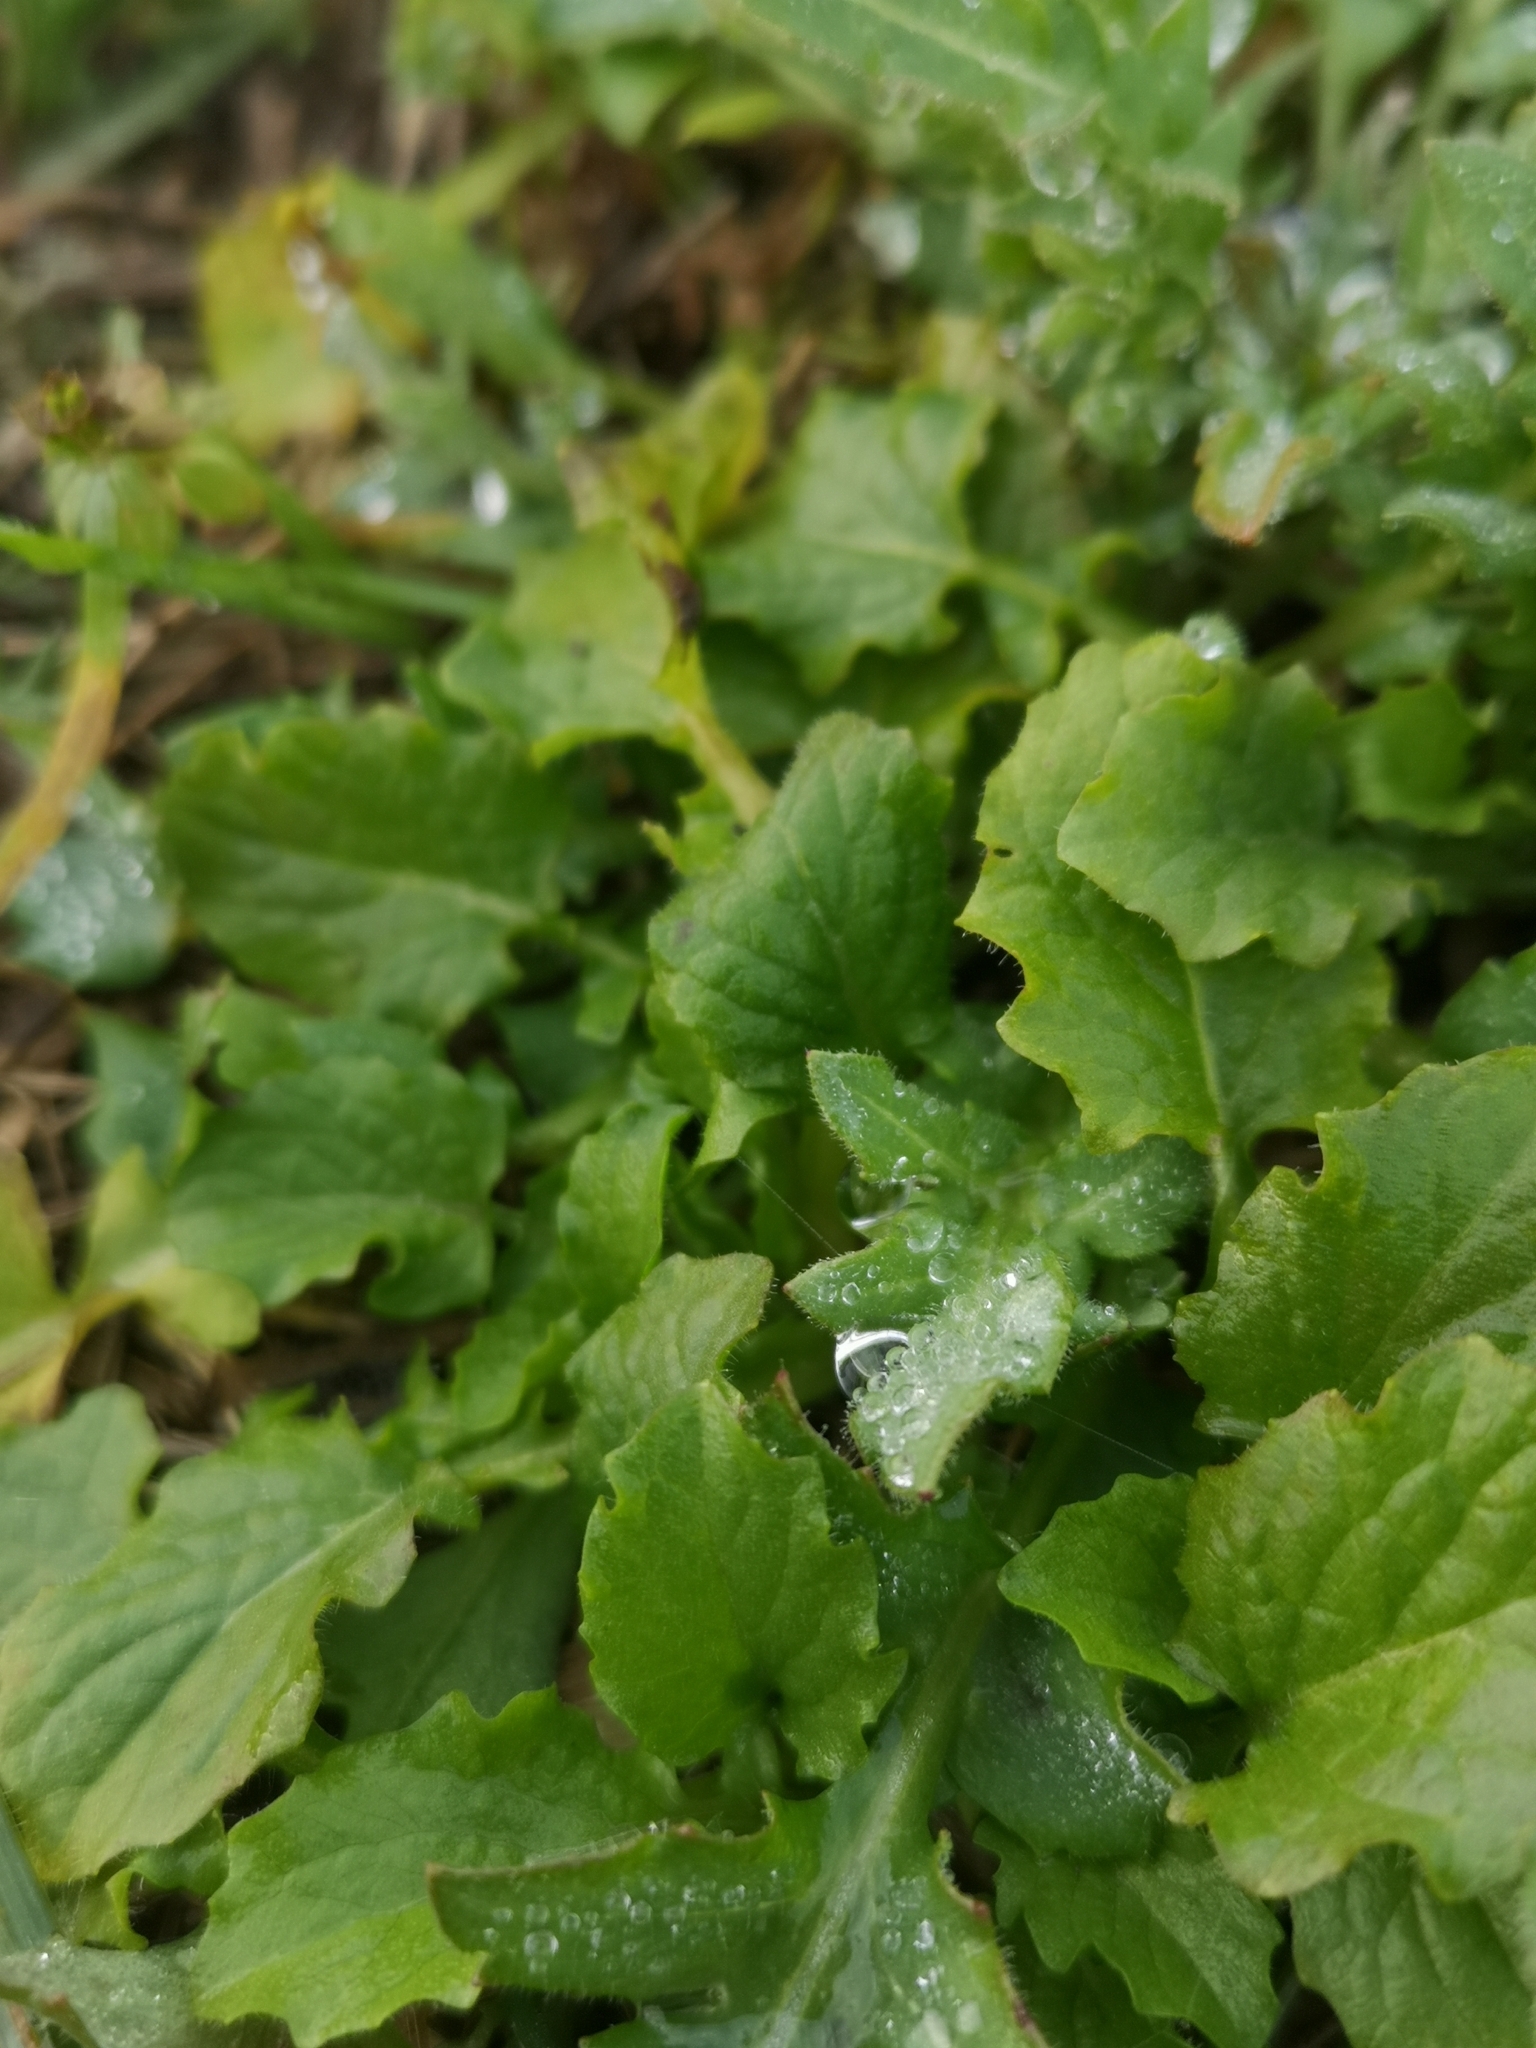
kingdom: Plantae
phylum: Tracheophyta
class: Magnoliopsida
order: Asterales
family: Asteraceae
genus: Lapsana
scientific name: Lapsana communis
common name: Nipplewort
